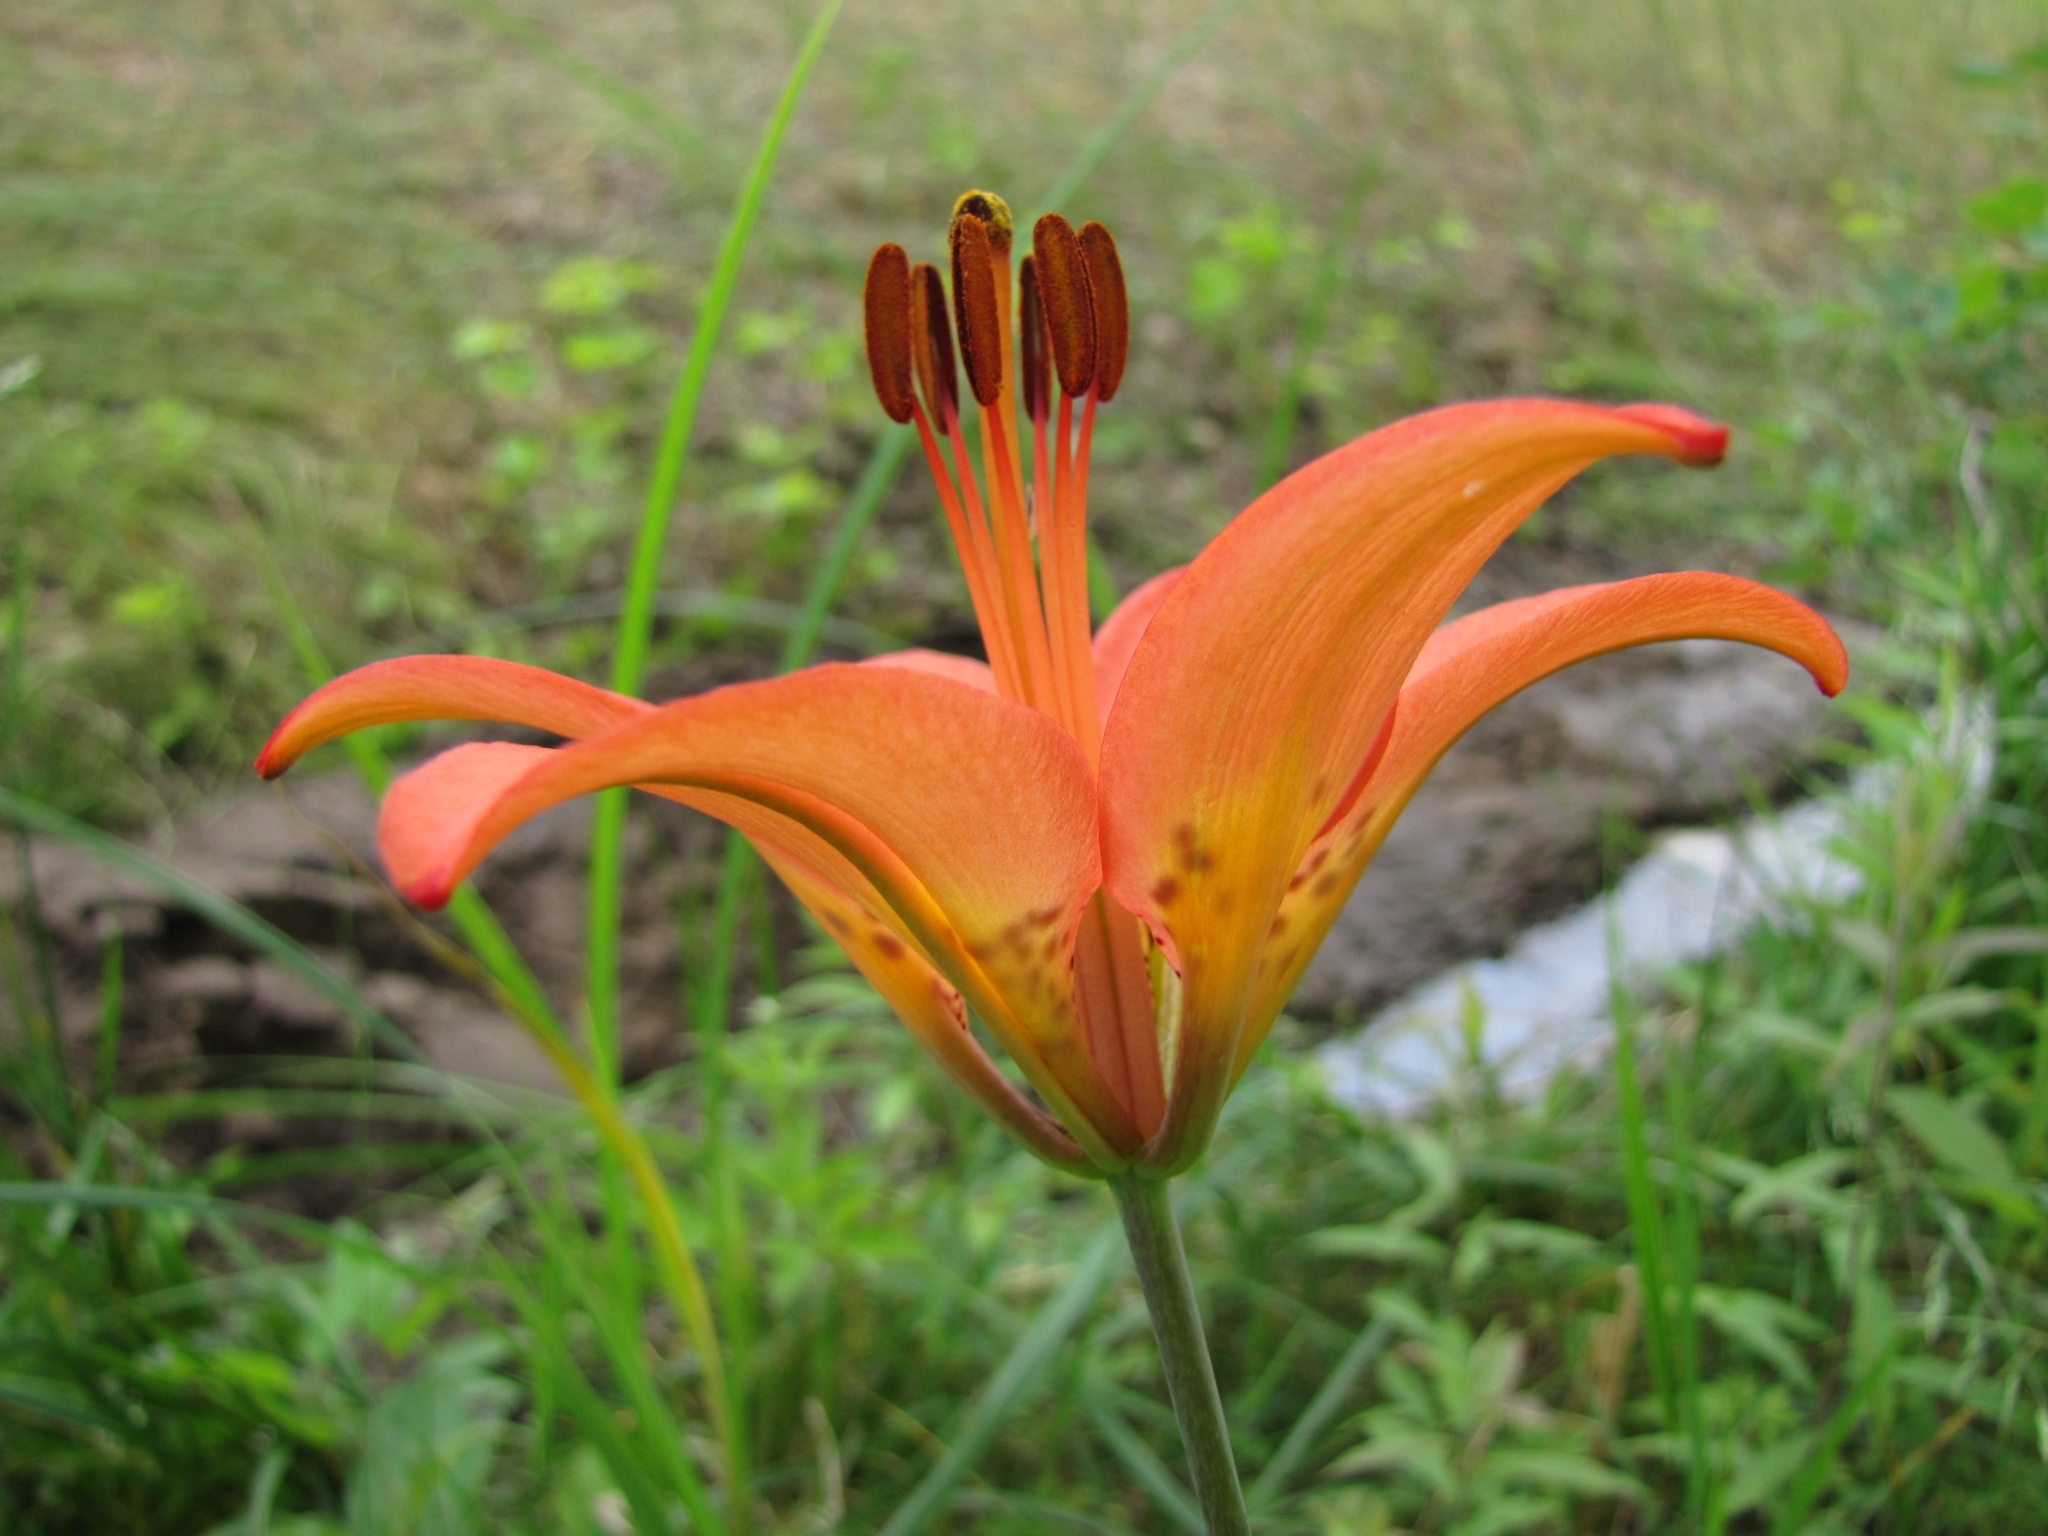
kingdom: Plantae
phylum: Tracheophyta
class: Liliopsida
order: Liliales
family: Liliaceae
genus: Lilium
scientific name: Lilium philadelphicum
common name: Red lily
